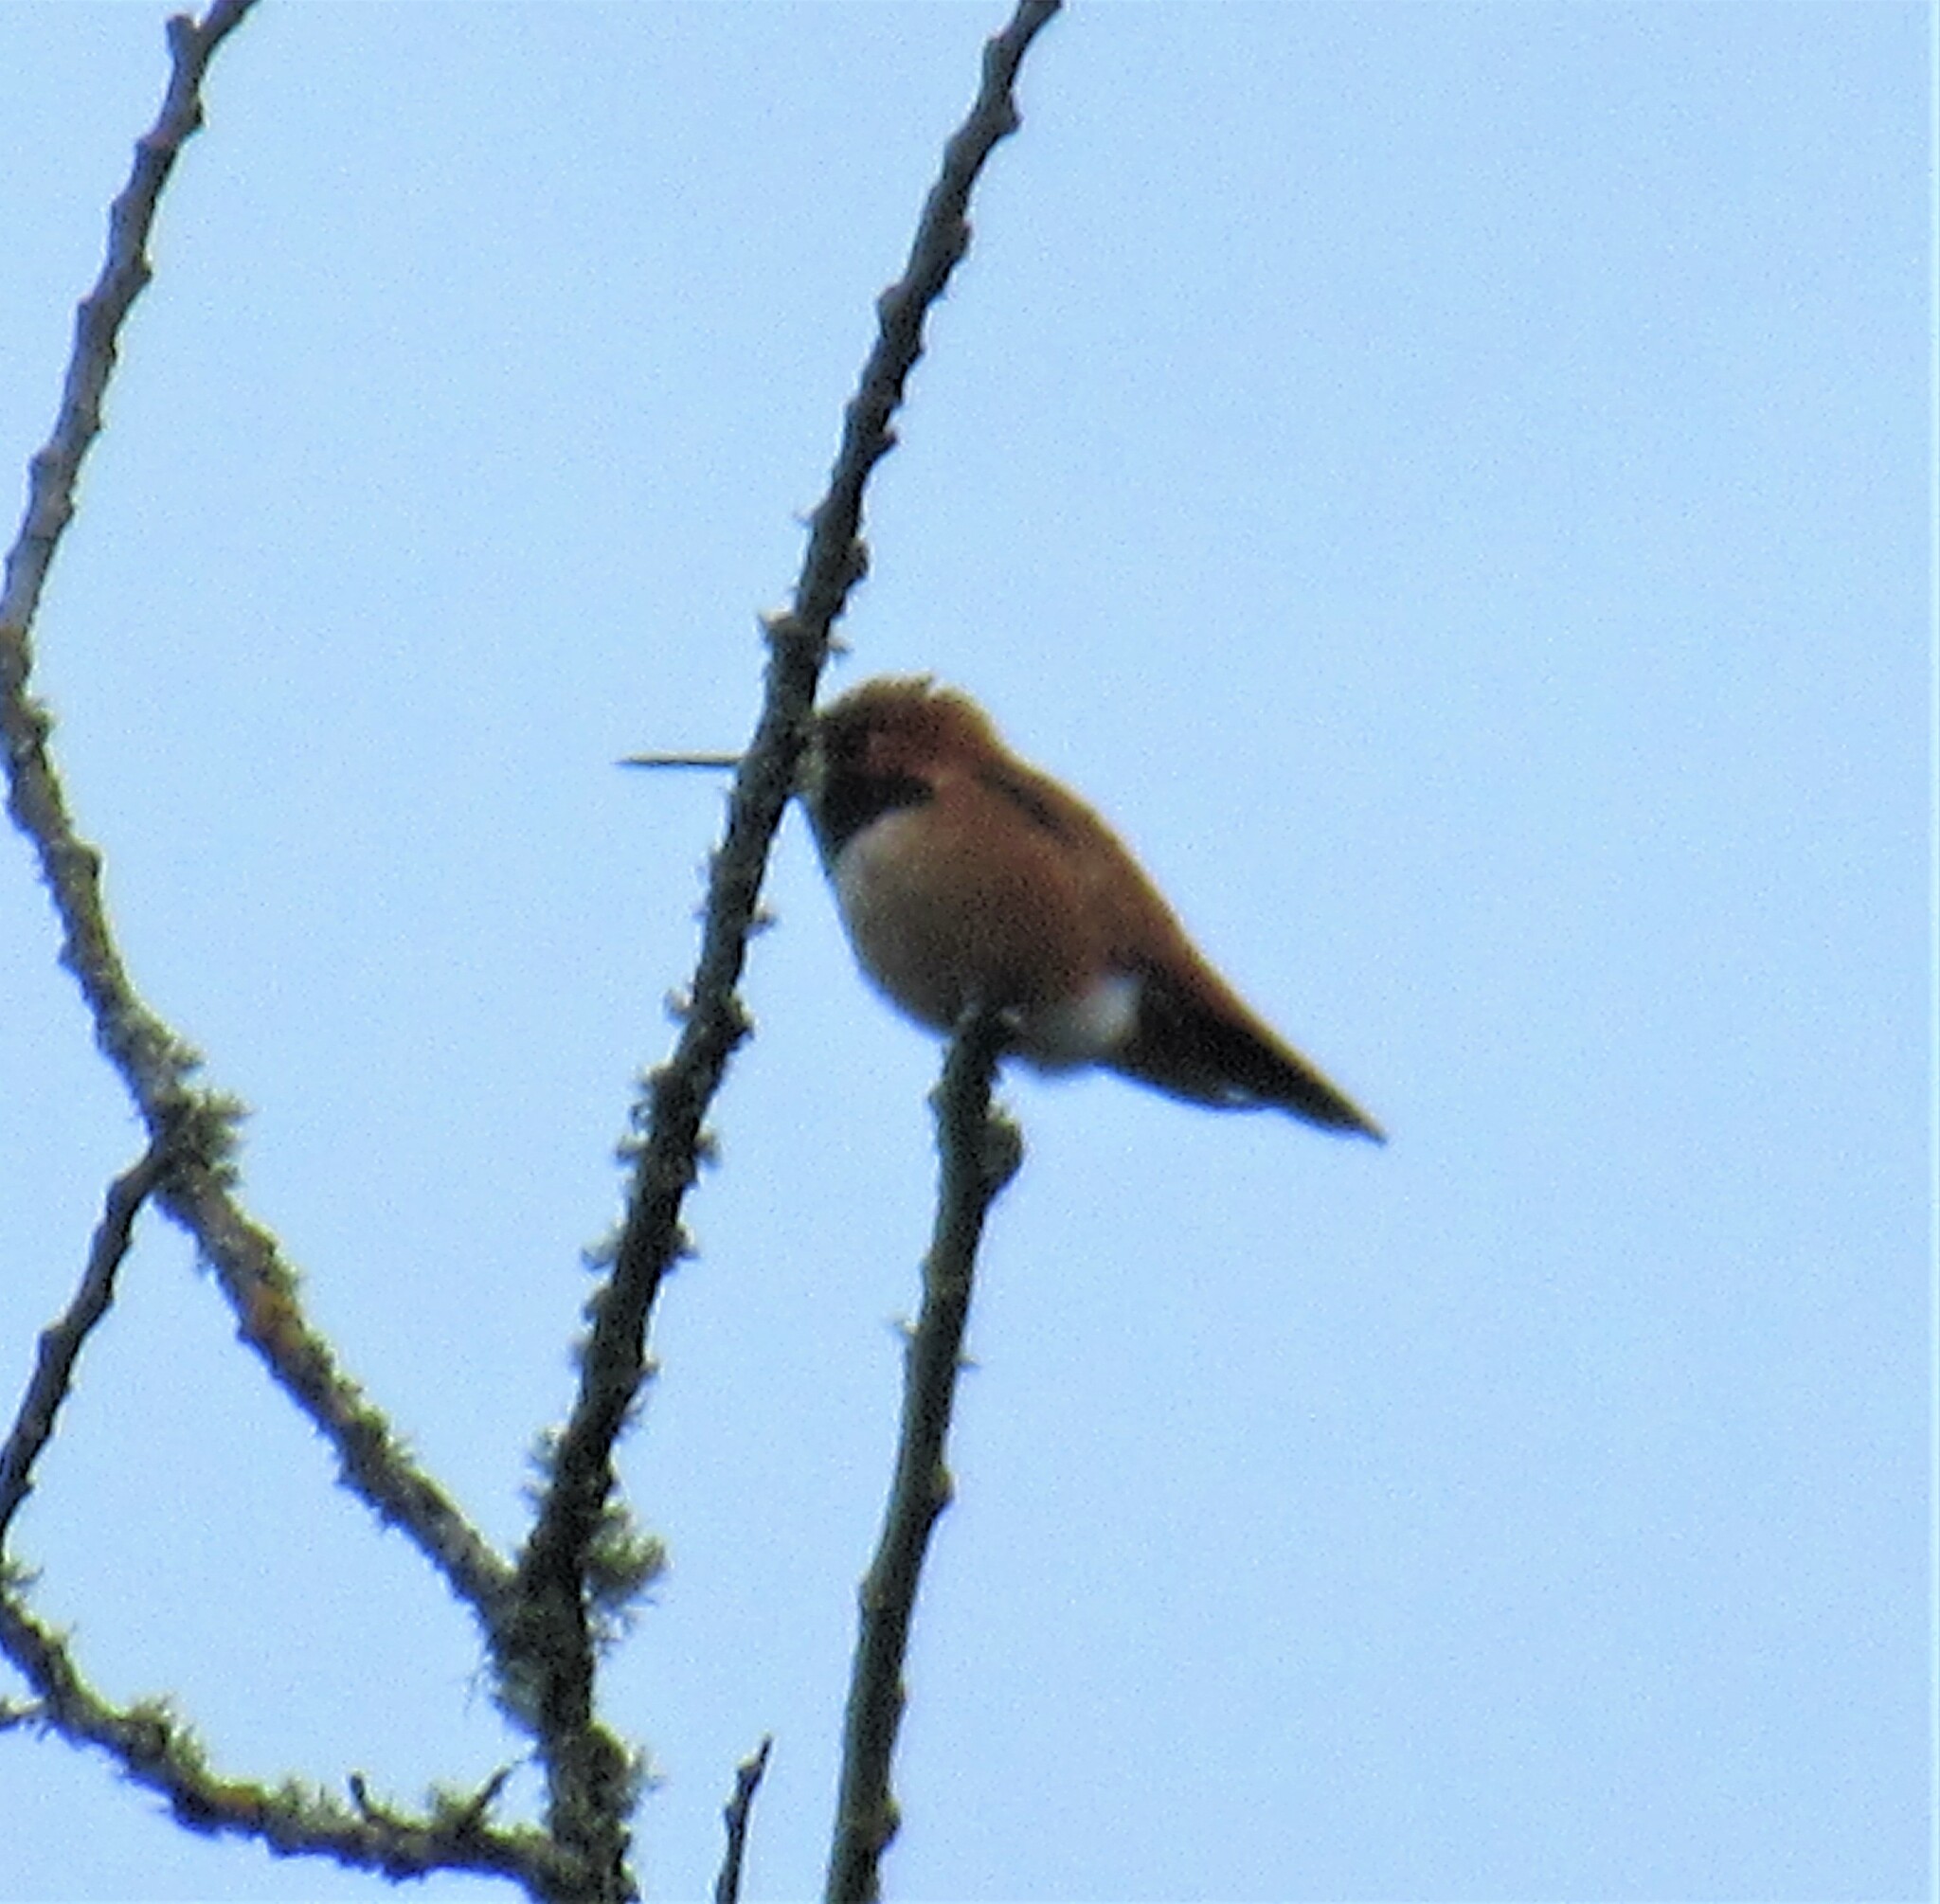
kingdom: Animalia
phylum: Chordata
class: Aves
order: Apodiformes
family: Trochilidae
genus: Selasphorus
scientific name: Selasphorus rufus
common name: Rufous hummingbird
